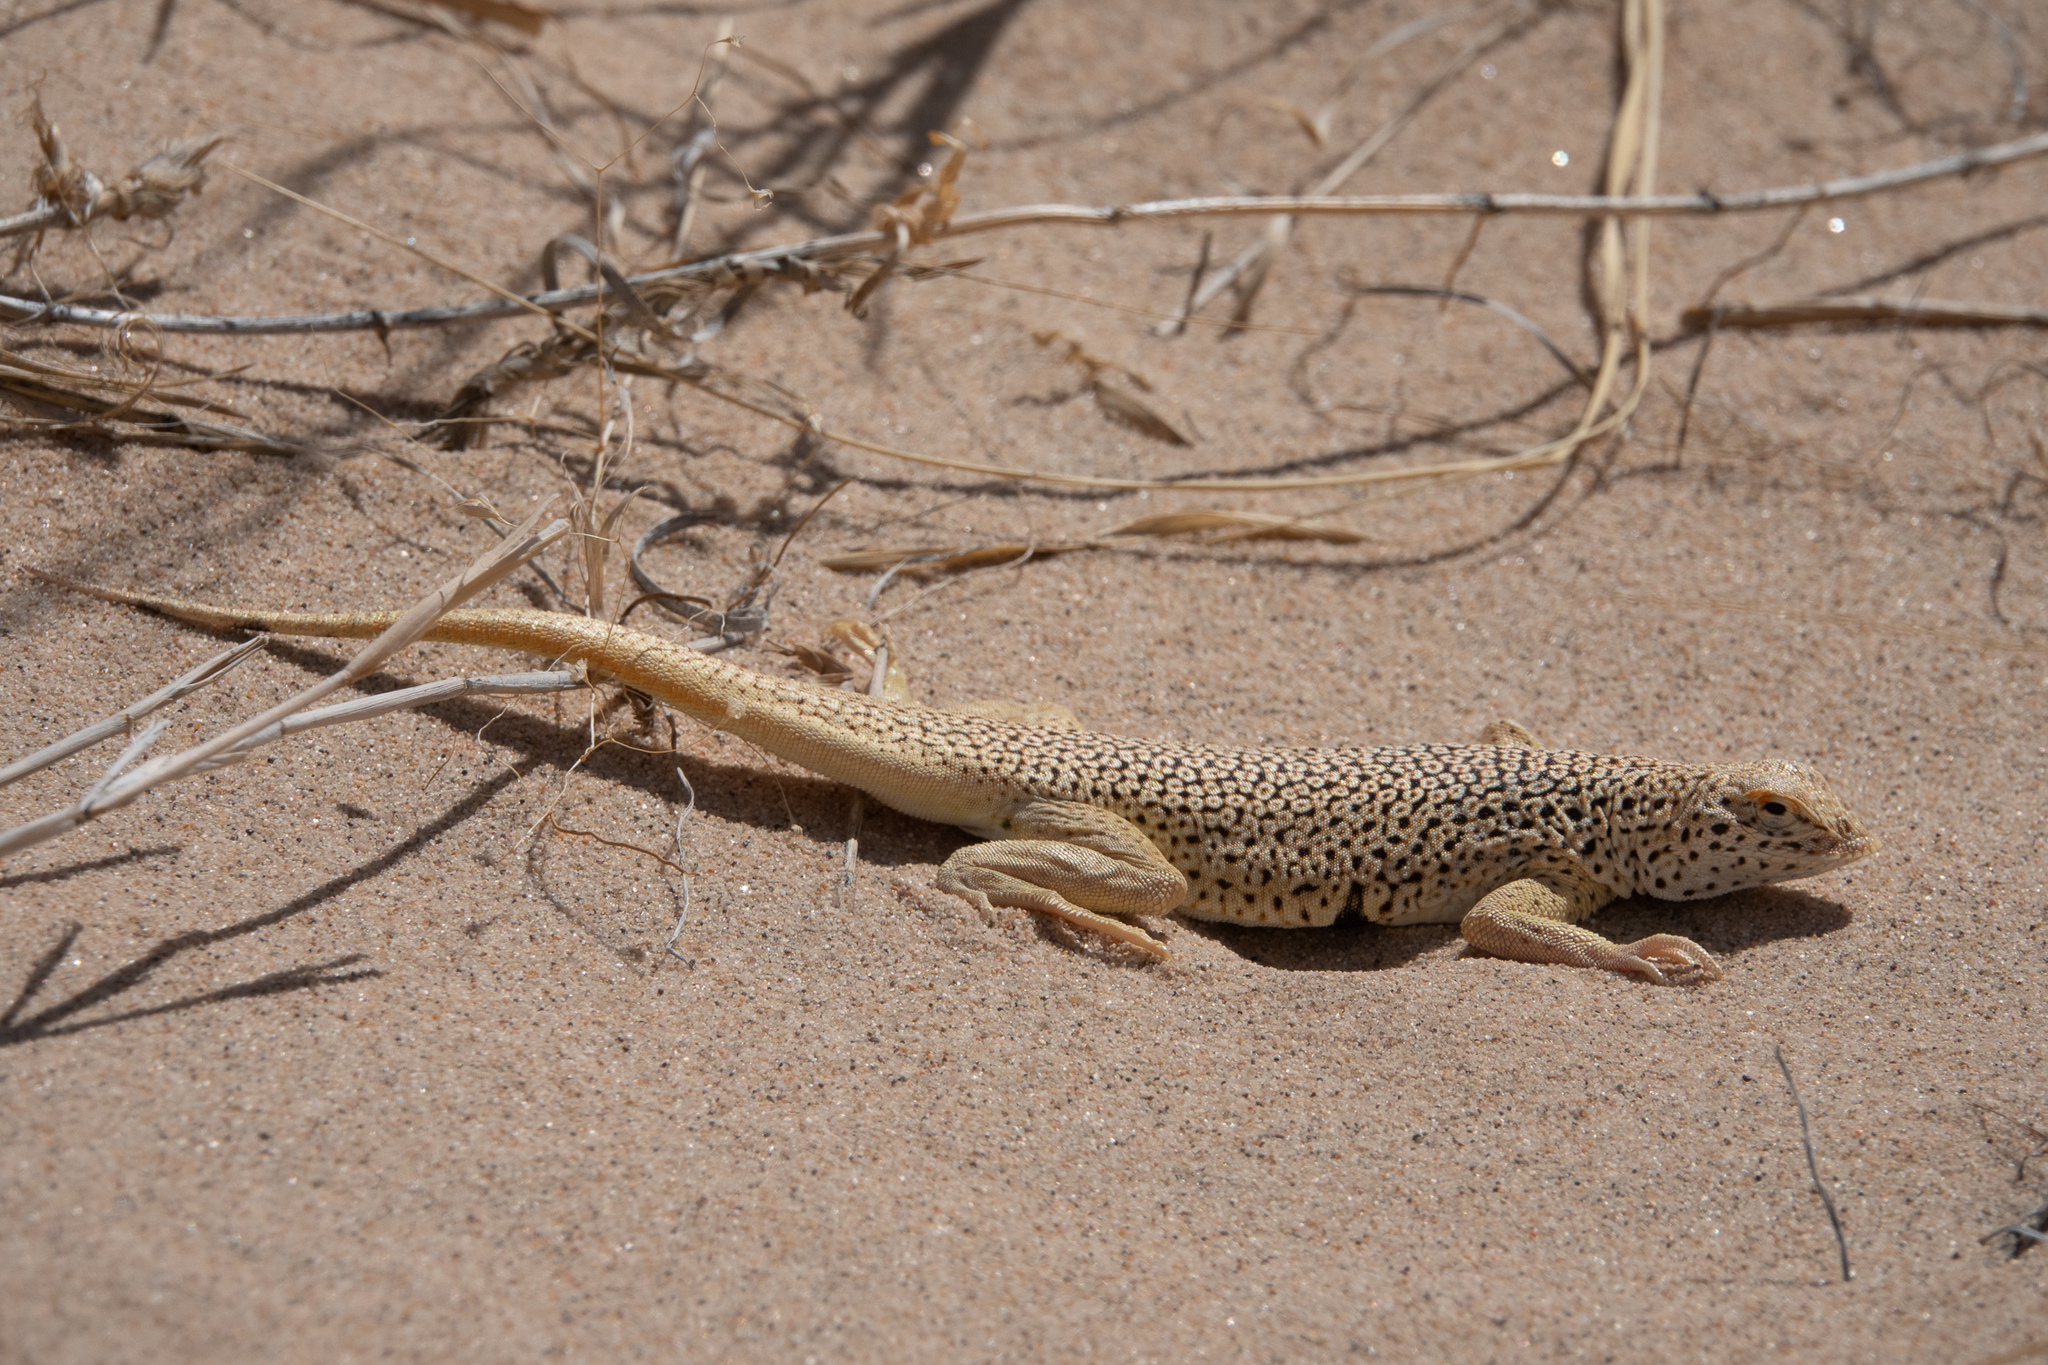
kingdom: Animalia
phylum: Chordata
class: Squamata
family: Phrynosomatidae
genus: Uma
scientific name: Uma scoparia
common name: Mojave fringe-toed lizard
